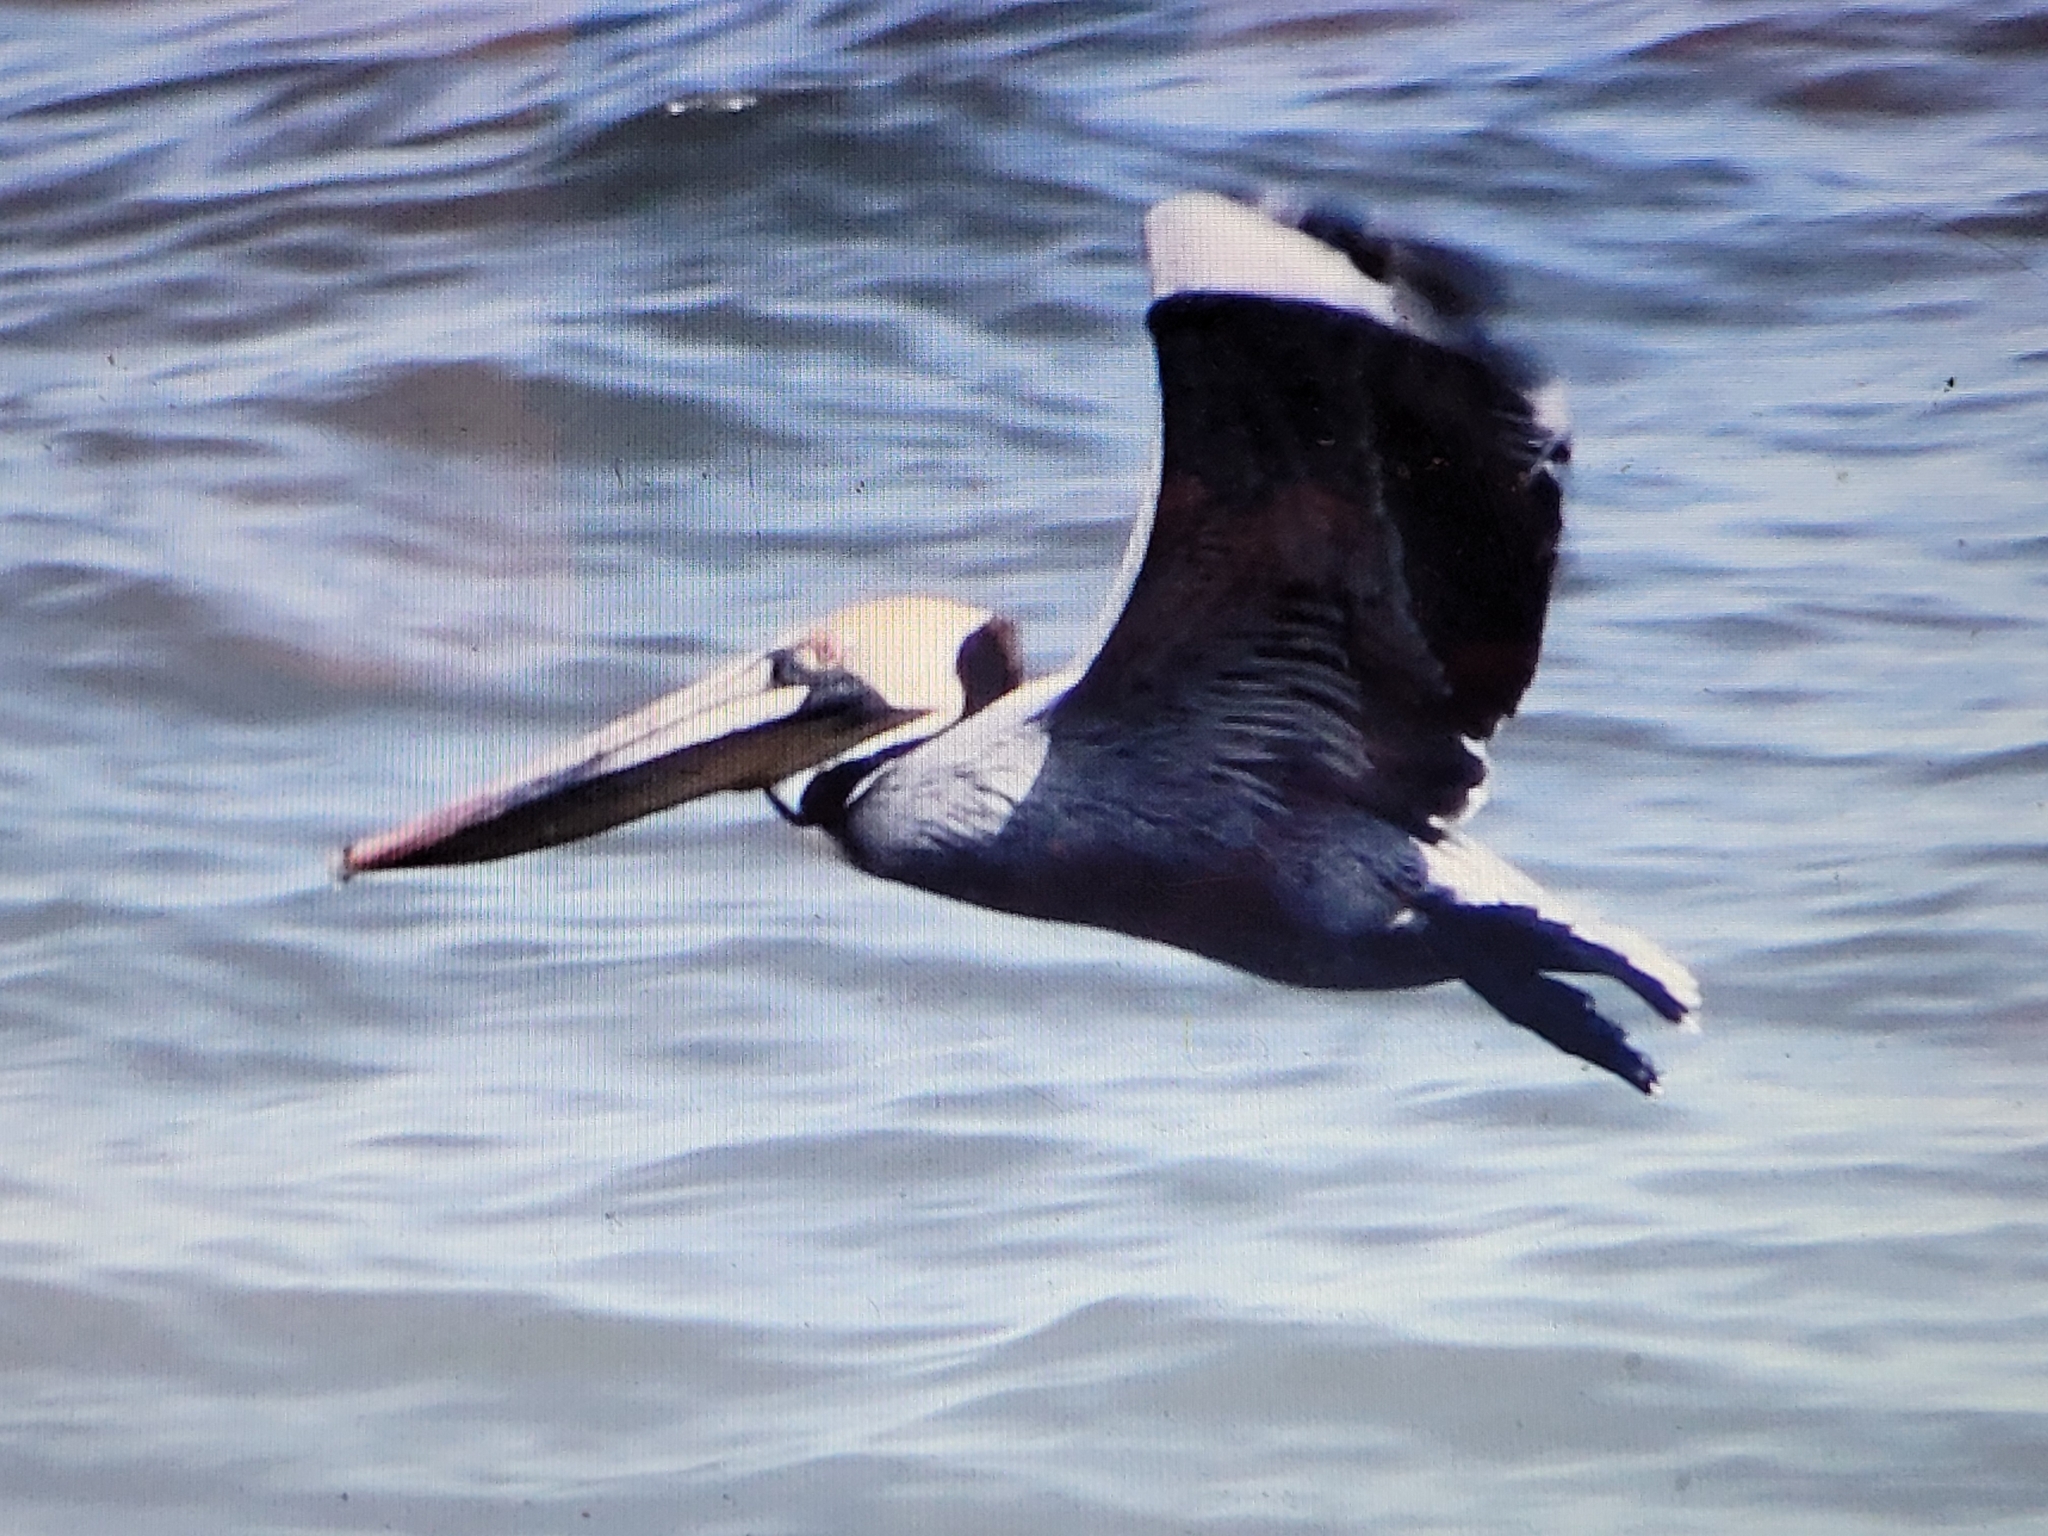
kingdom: Animalia
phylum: Chordata
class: Aves
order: Pelecaniformes
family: Pelecanidae
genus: Pelecanus
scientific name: Pelecanus occidentalis
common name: Brown pelican
